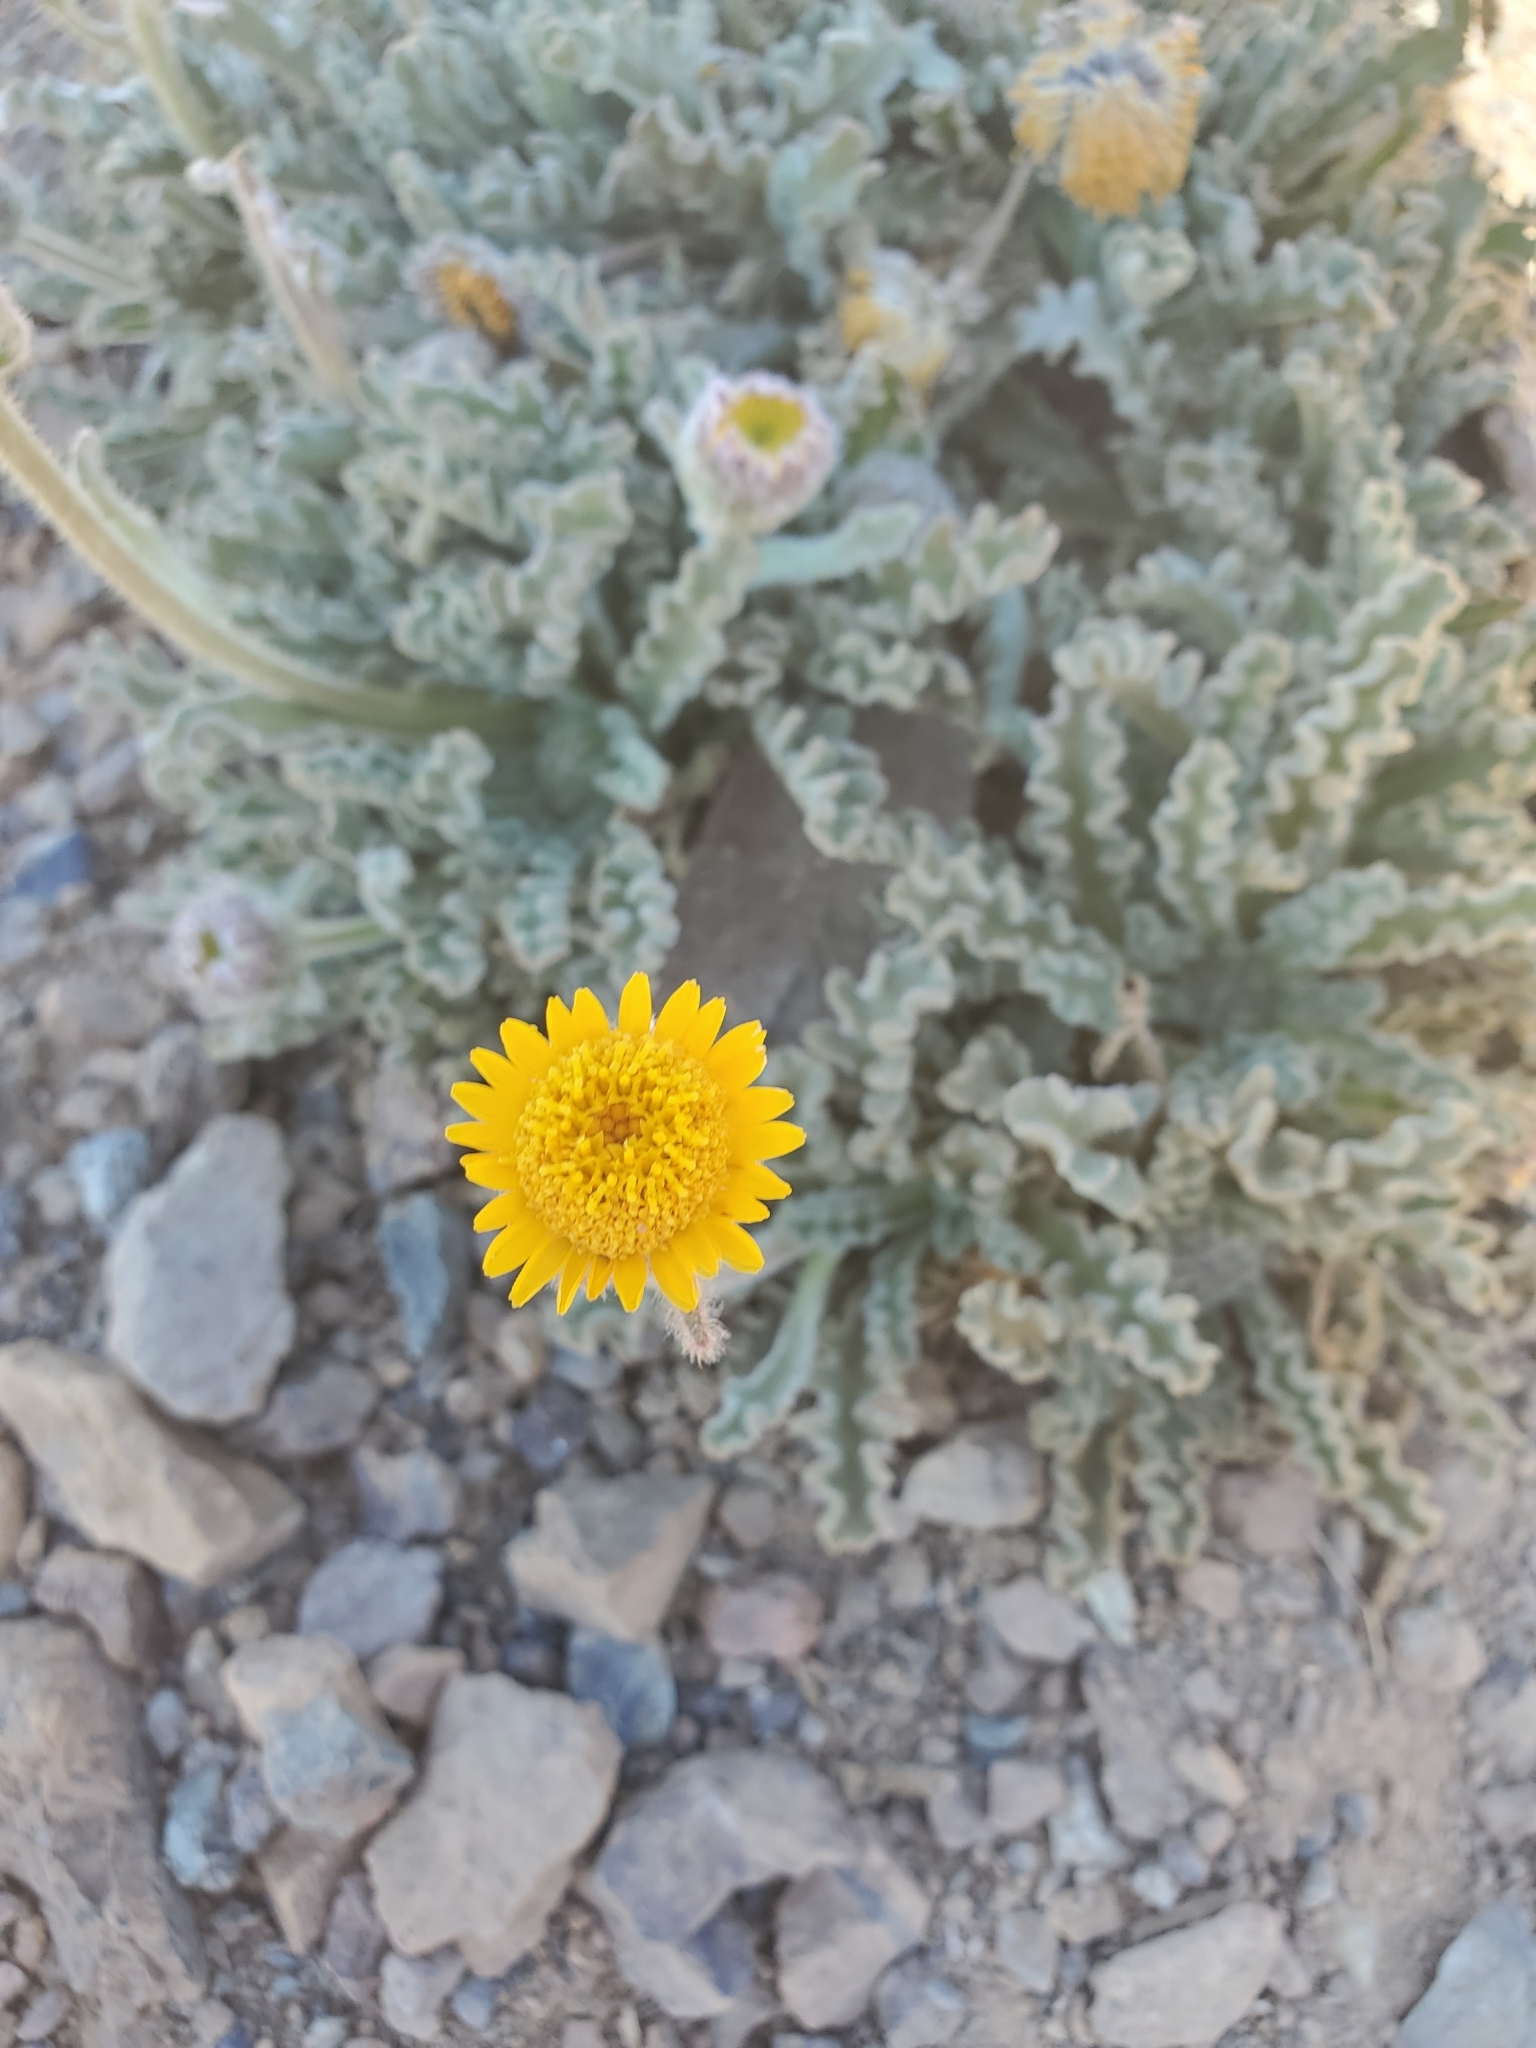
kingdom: Plantae
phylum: Tracheophyta
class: Magnoliopsida
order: Asterales
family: Asteraceae
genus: Hulsea
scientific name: Hulsea nana
